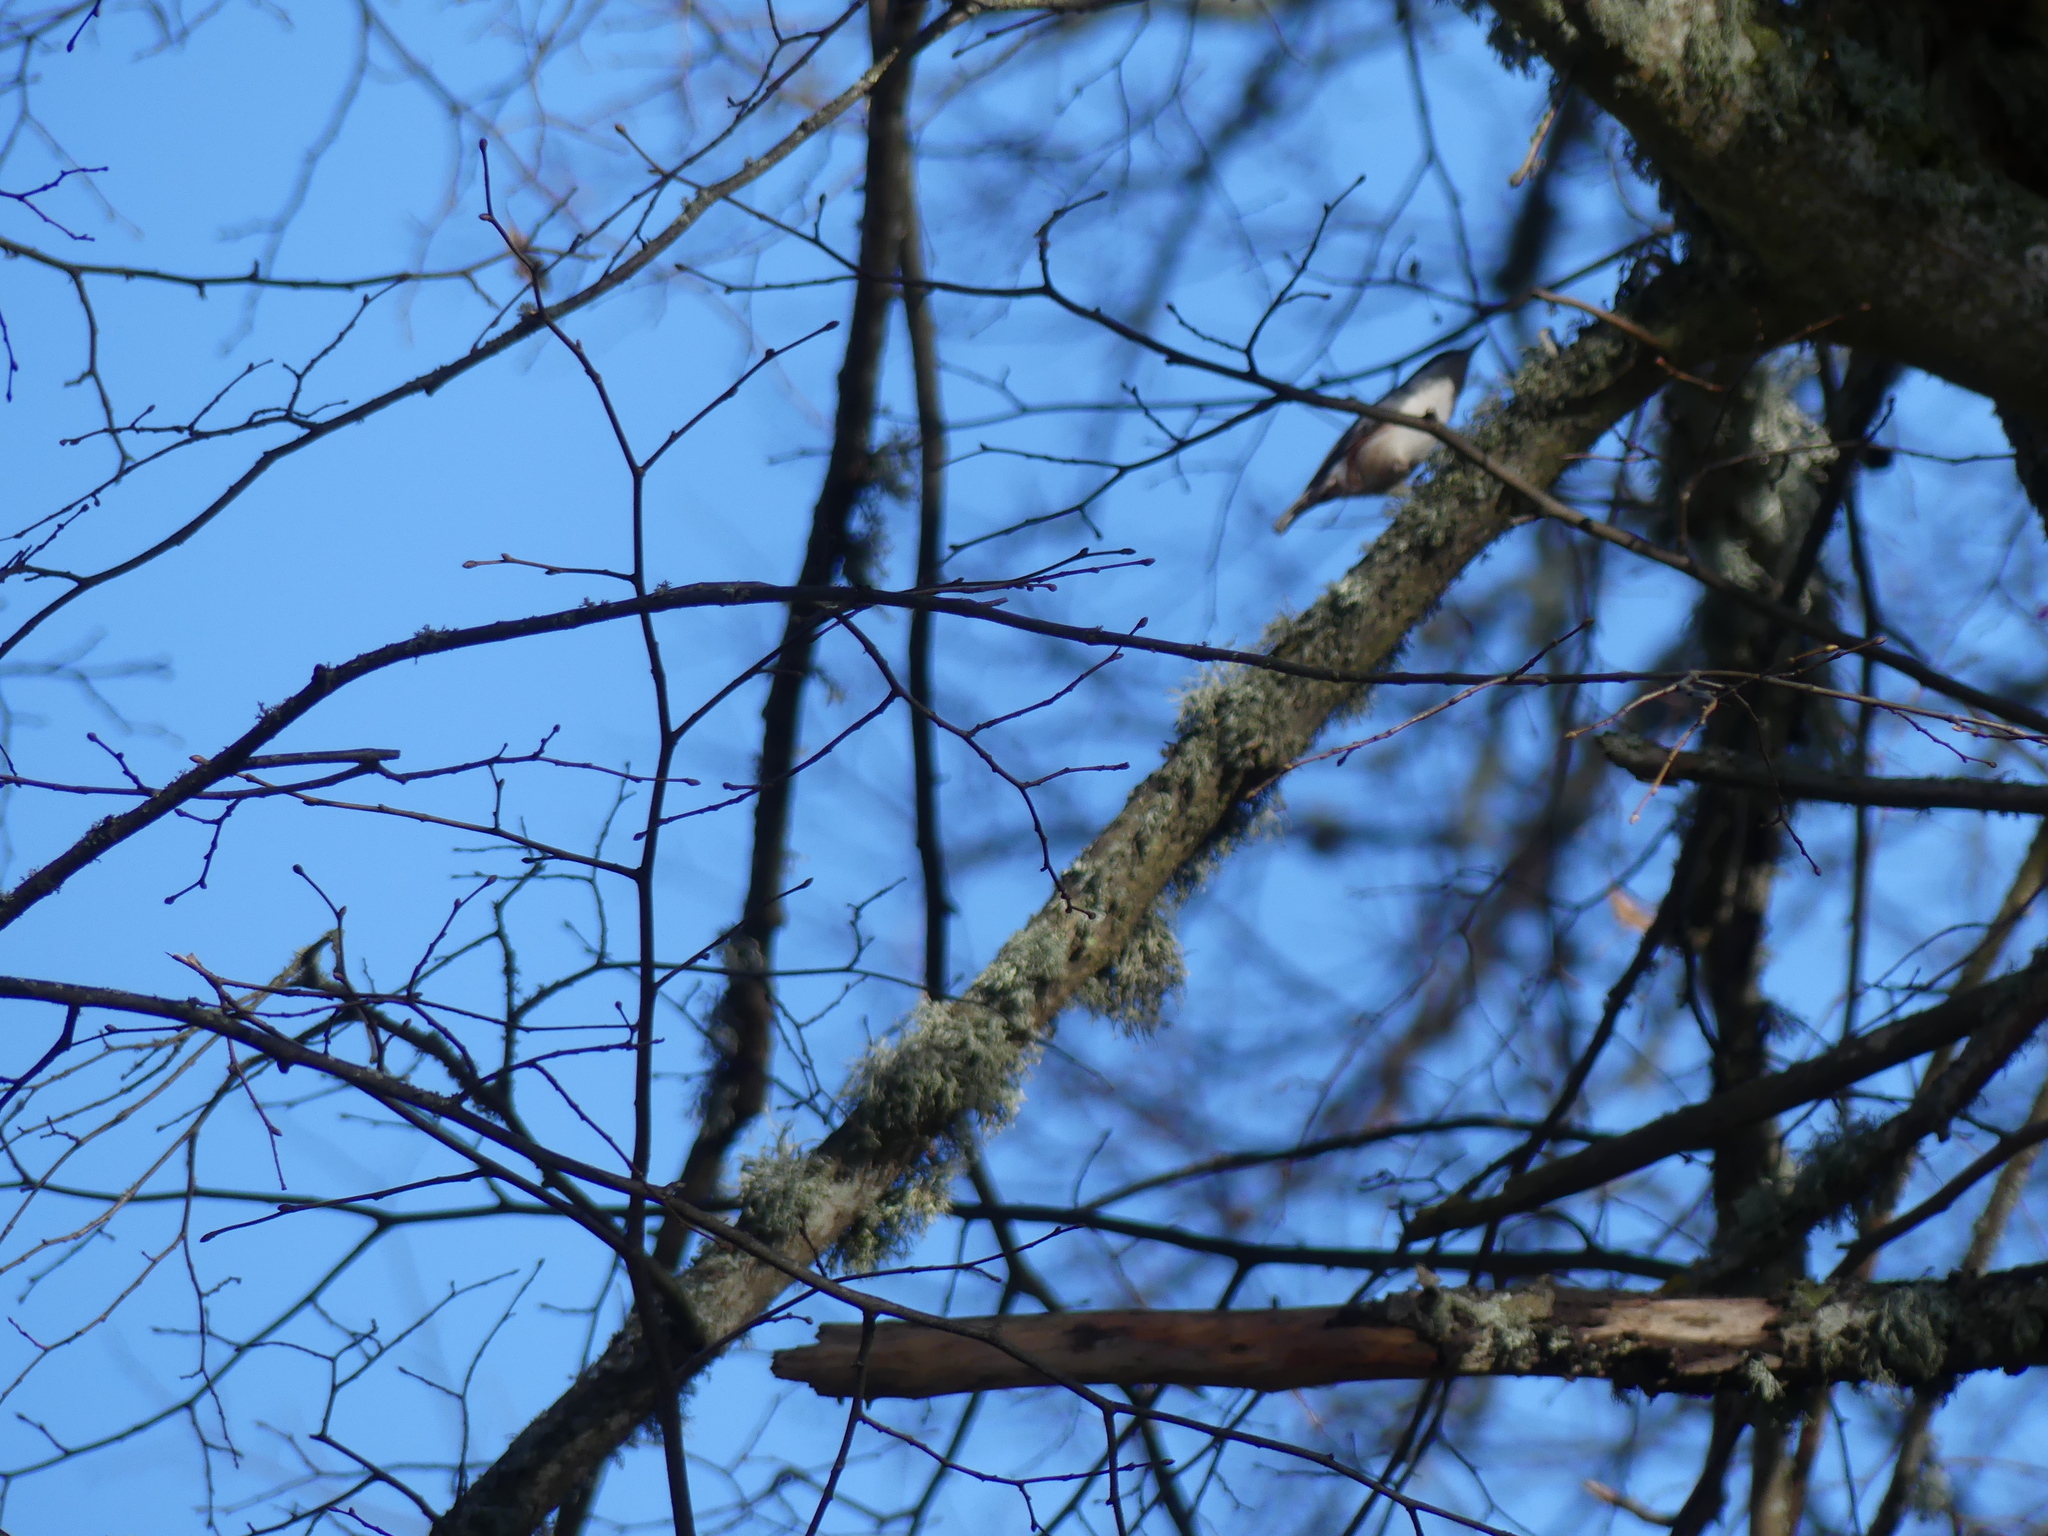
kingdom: Animalia
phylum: Chordata
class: Aves
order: Passeriformes
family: Sittidae
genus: Sitta
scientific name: Sitta europaea
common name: Eurasian nuthatch
